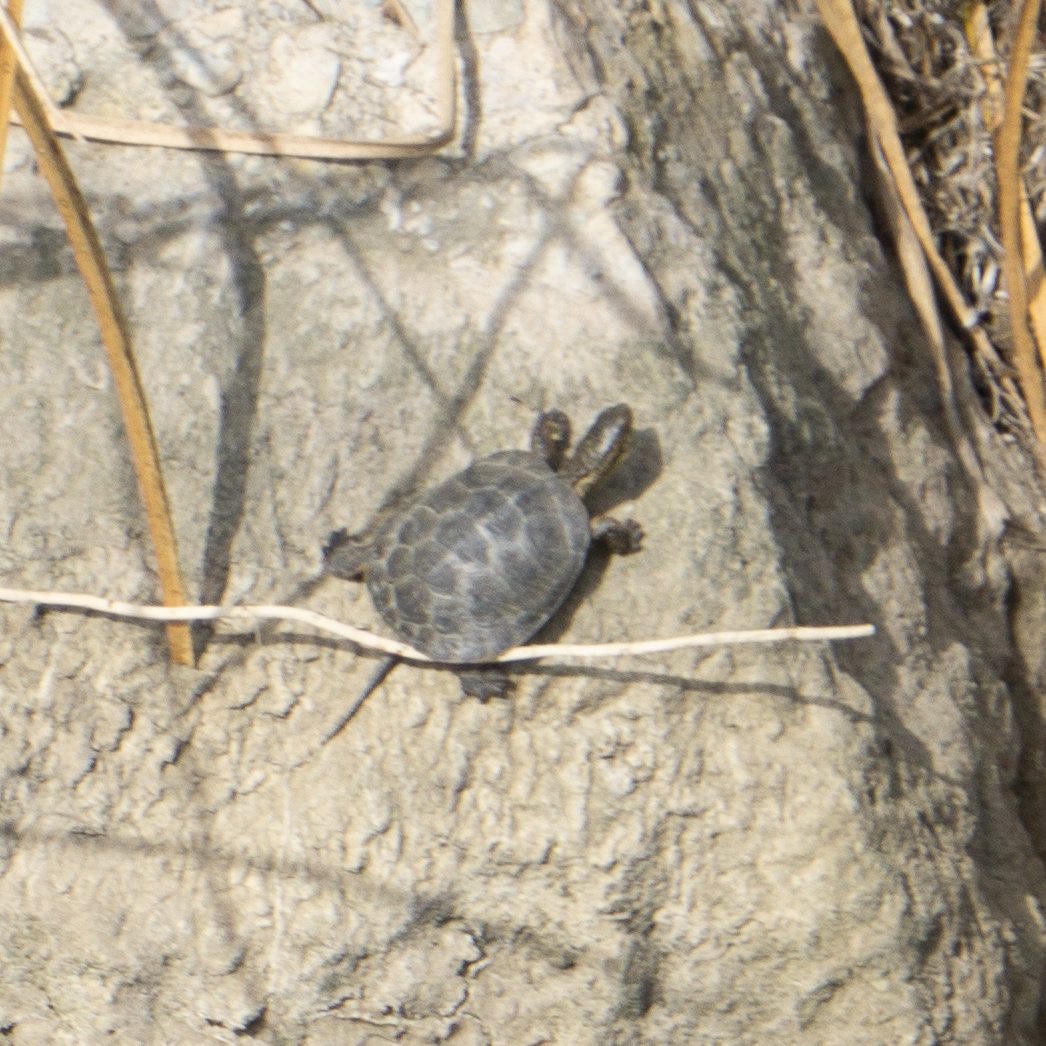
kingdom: Animalia
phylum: Chordata
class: Testudines
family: Emydidae
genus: Actinemys
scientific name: Actinemys marmorata
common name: Western pond turtle
